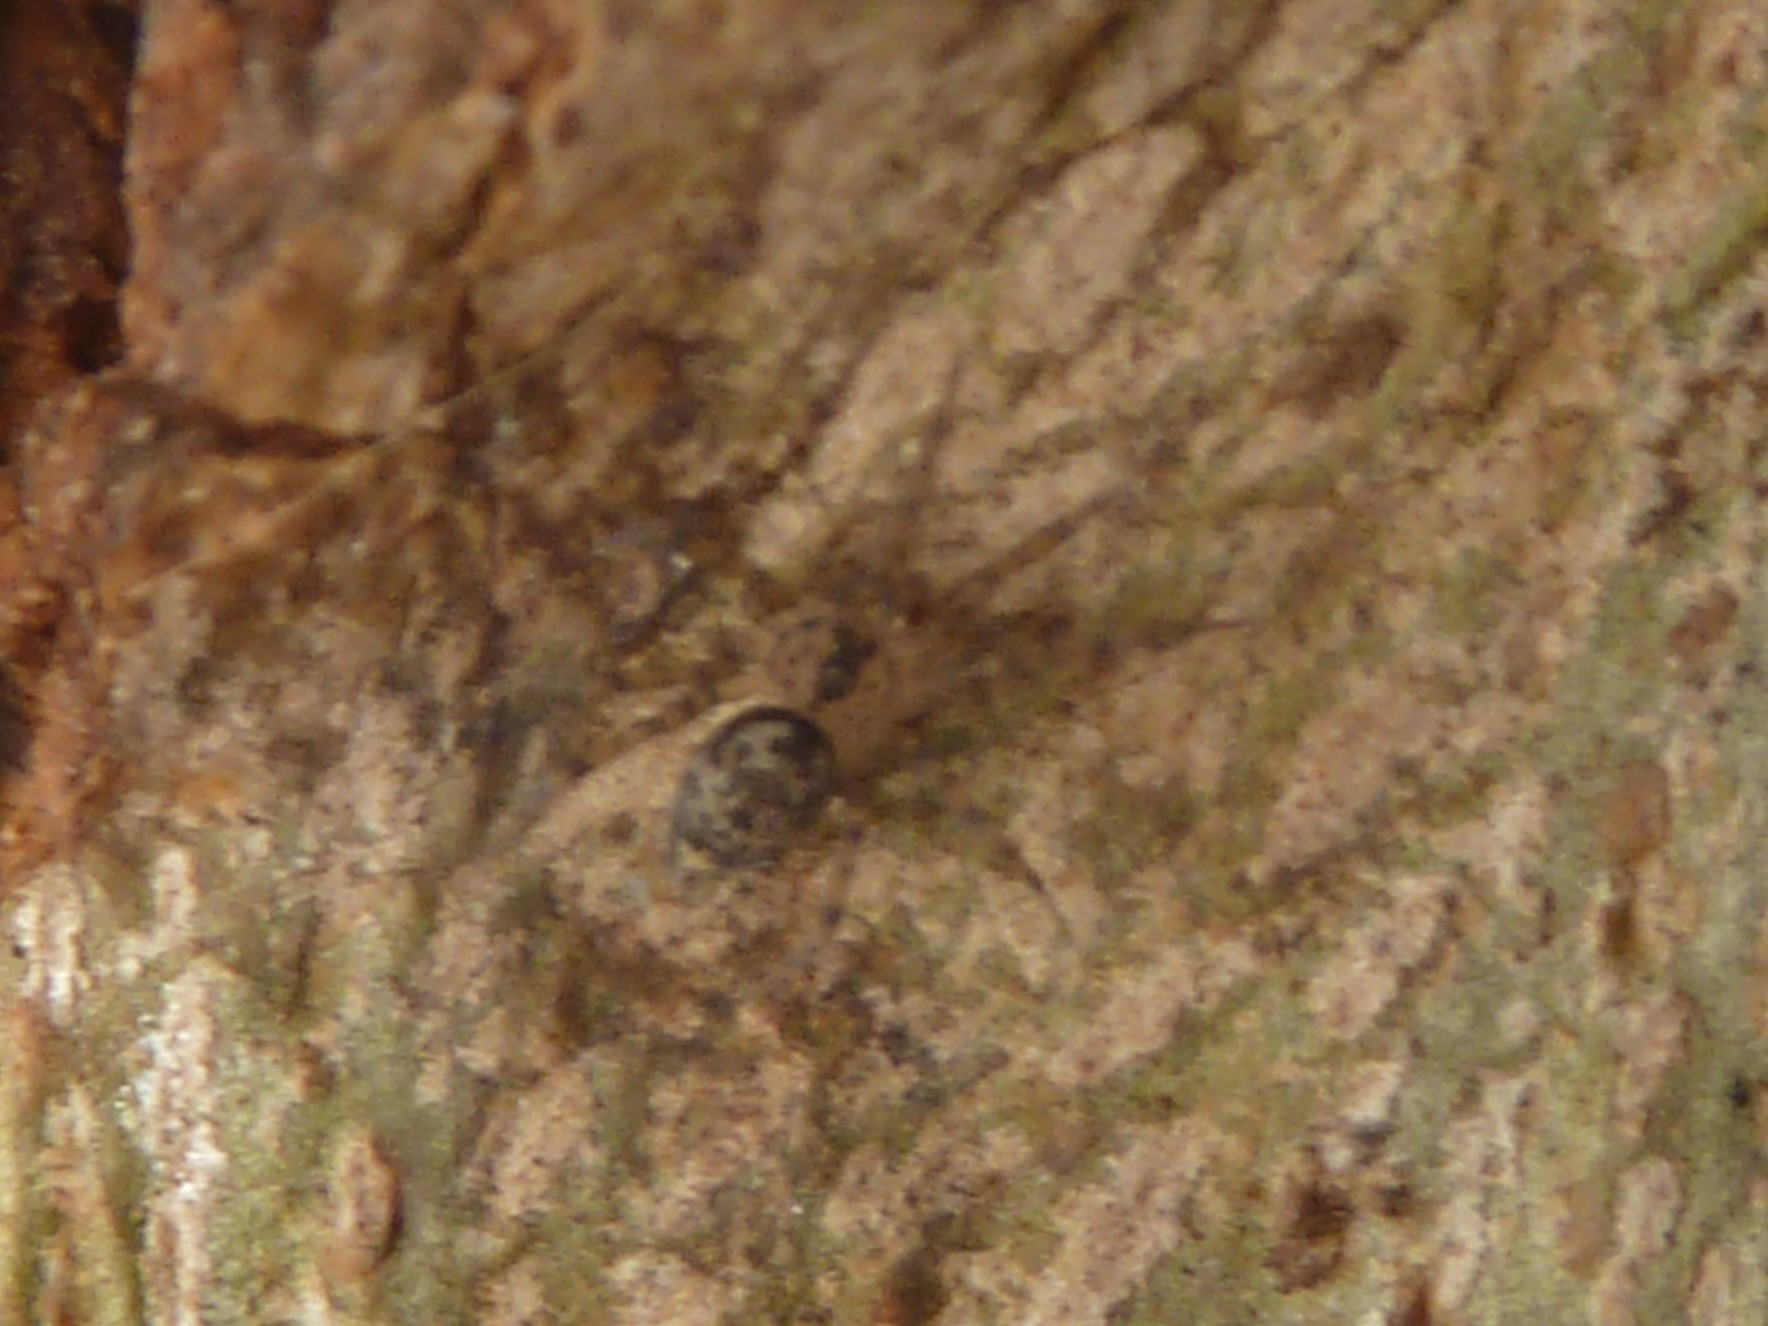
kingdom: Animalia
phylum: Arthropoda
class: Arachnida
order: Araneae
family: Oecobiidae
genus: Oecobius
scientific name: Oecobius navus
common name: Flatmesh weaver
